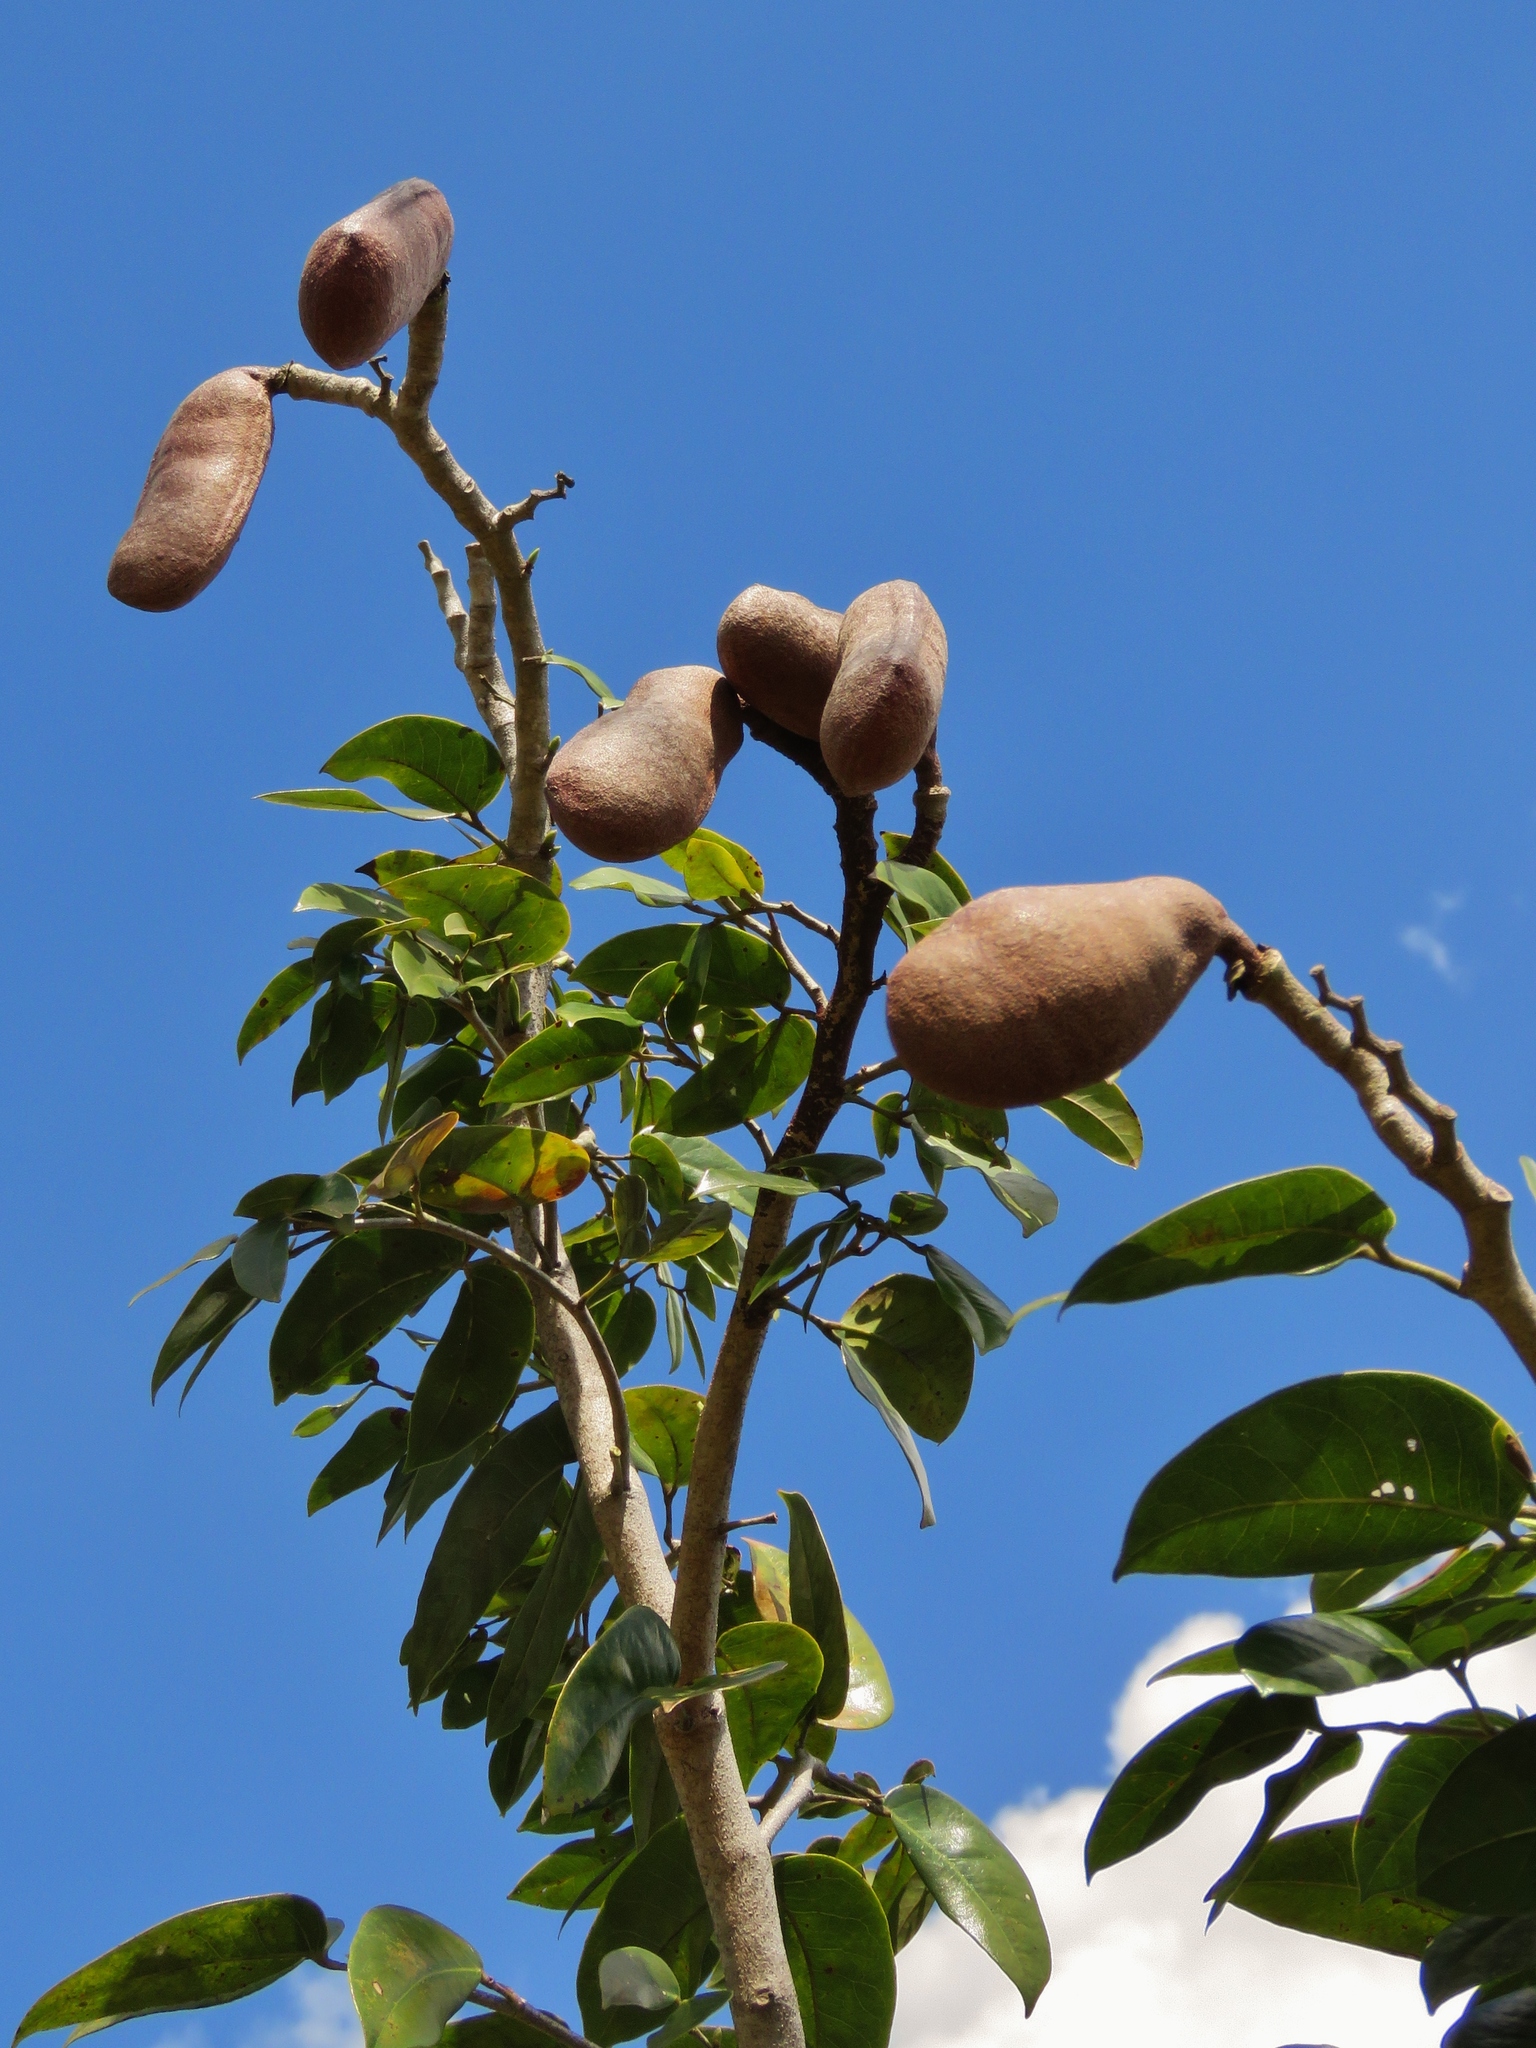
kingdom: Plantae
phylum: Tracheophyta
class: Magnoliopsida
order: Fabales
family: Fabaceae
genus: Hymenaea
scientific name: Hymenaea courbaril
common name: Brazilian copal
